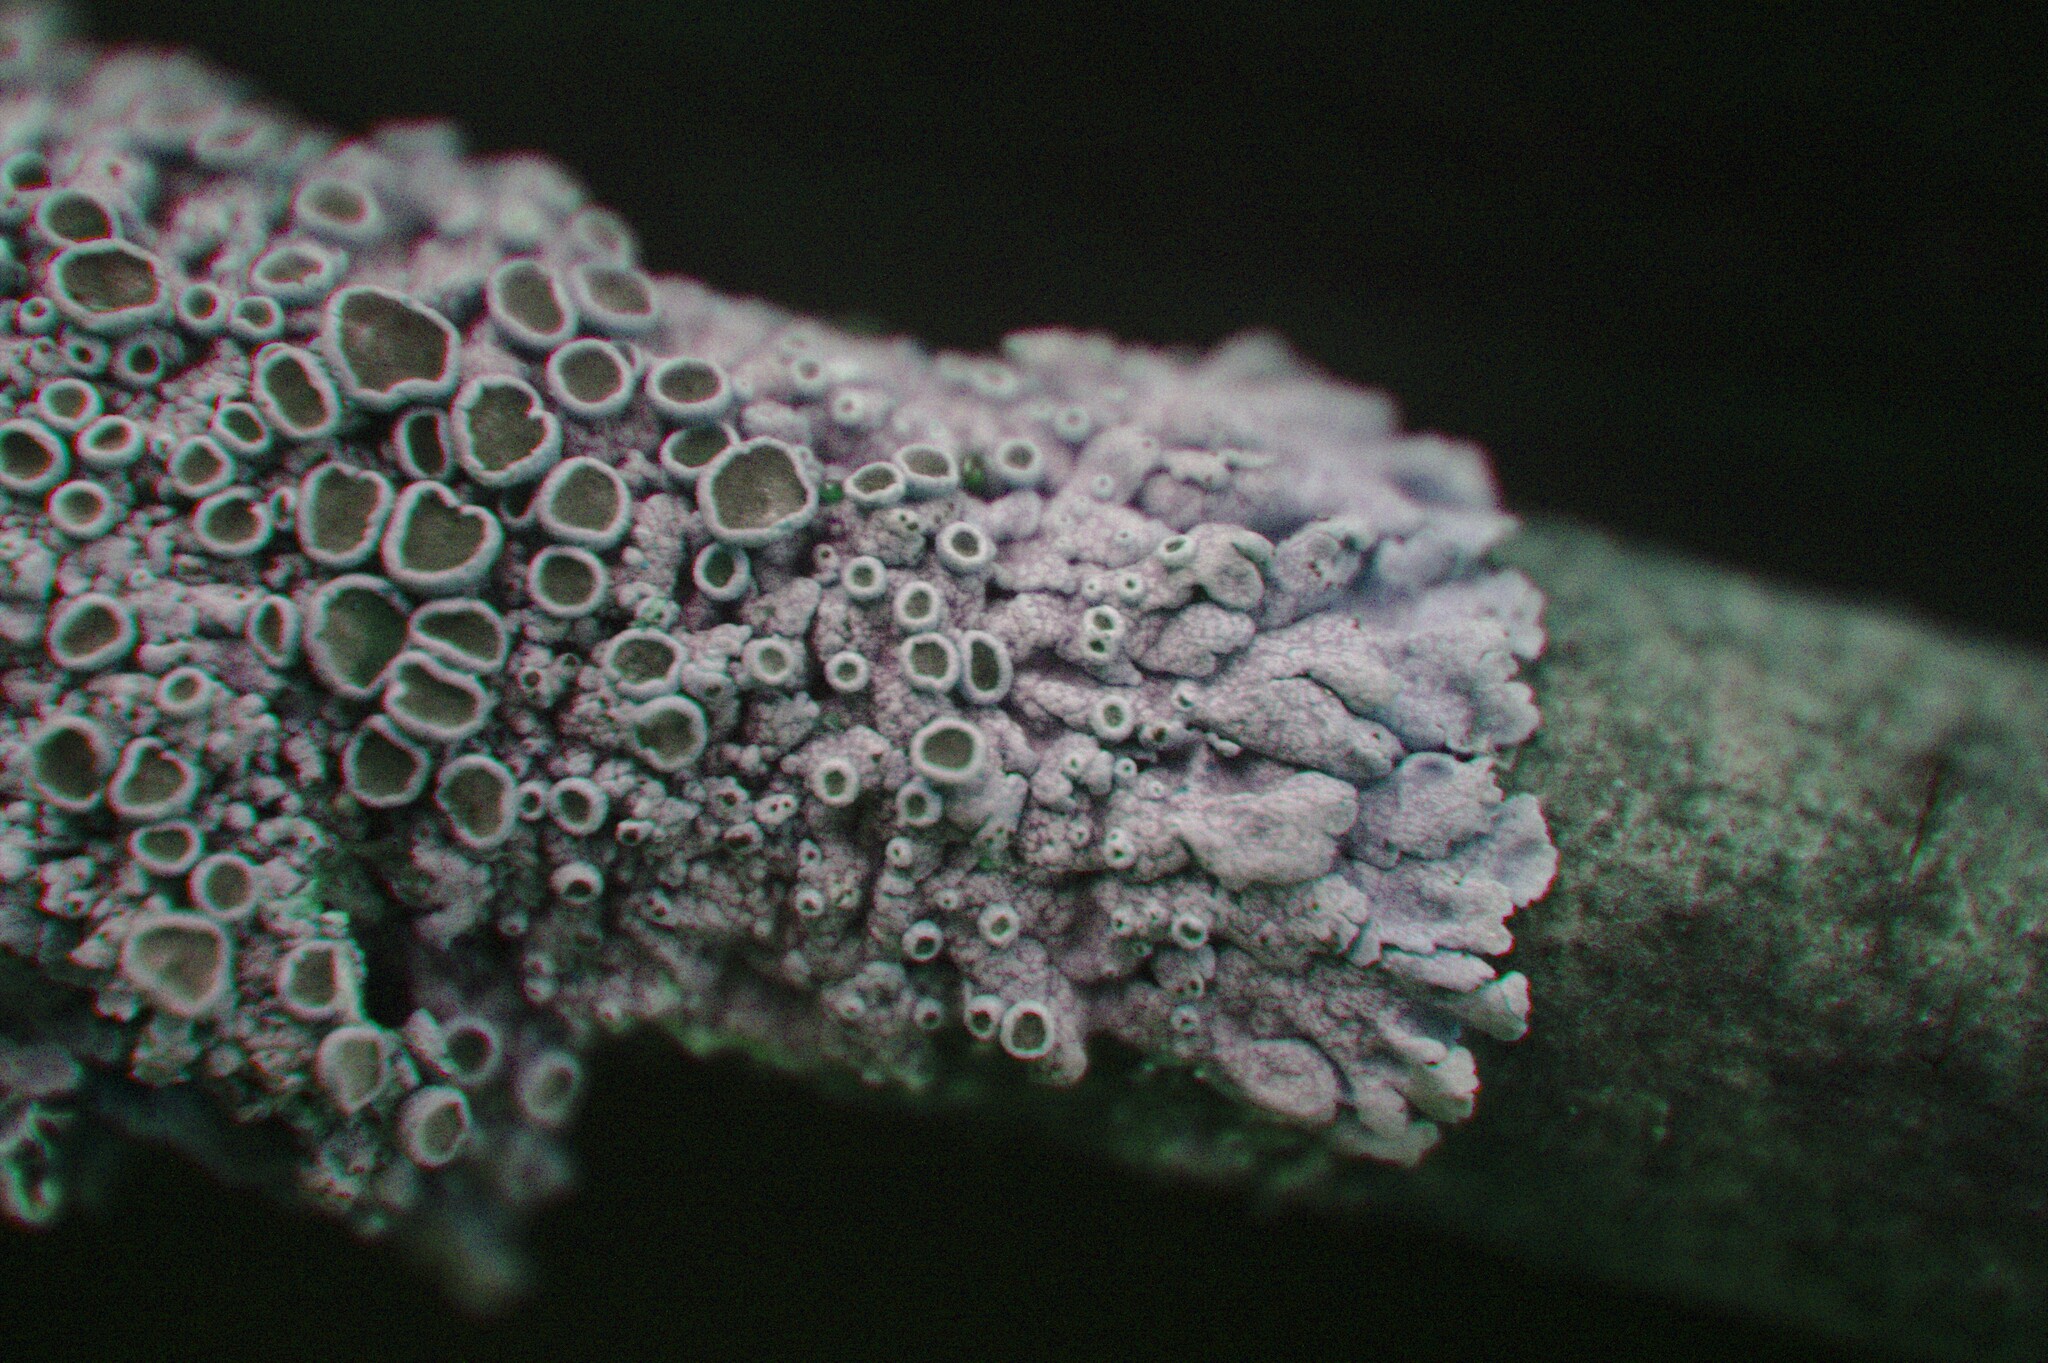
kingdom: Fungi
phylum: Ascomycota
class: Lecanoromycetes
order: Caliciales
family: Physciaceae
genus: Physcia
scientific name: Physcia stellaris
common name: Star rosette lichen
